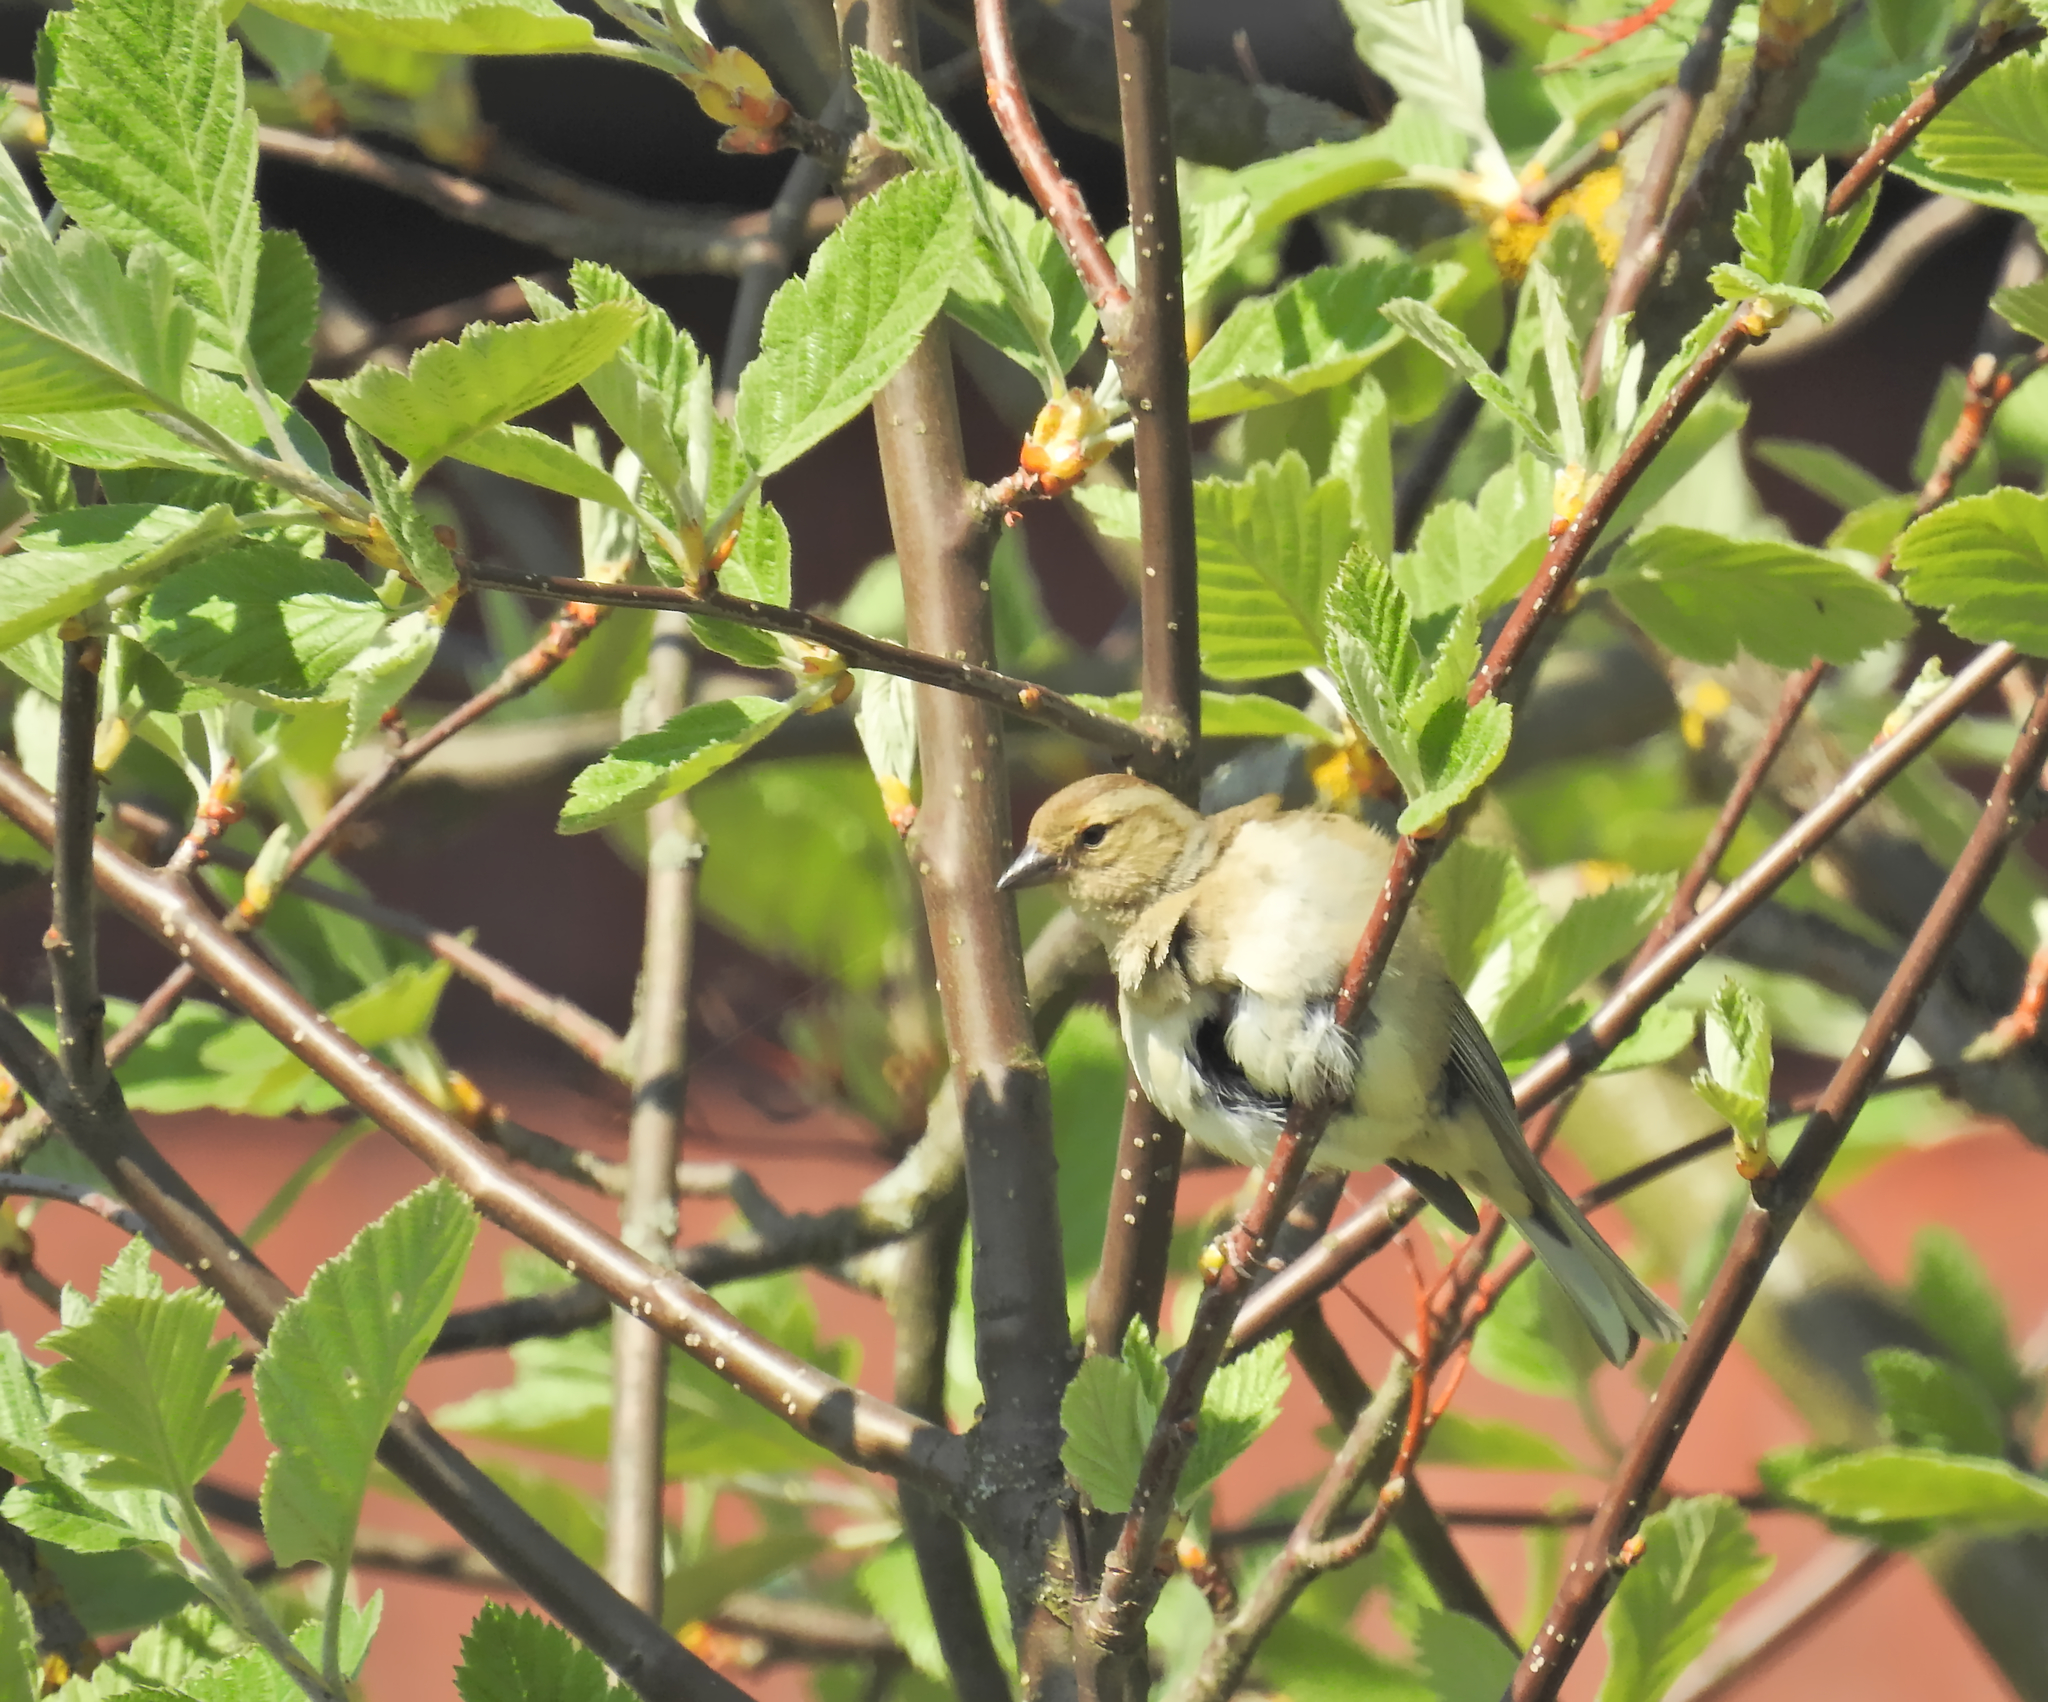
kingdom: Animalia
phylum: Chordata
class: Aves
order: Passeriformes
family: Fringillidae
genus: Fringilla
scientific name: Fringilla coelebs
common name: Common chaffinch
